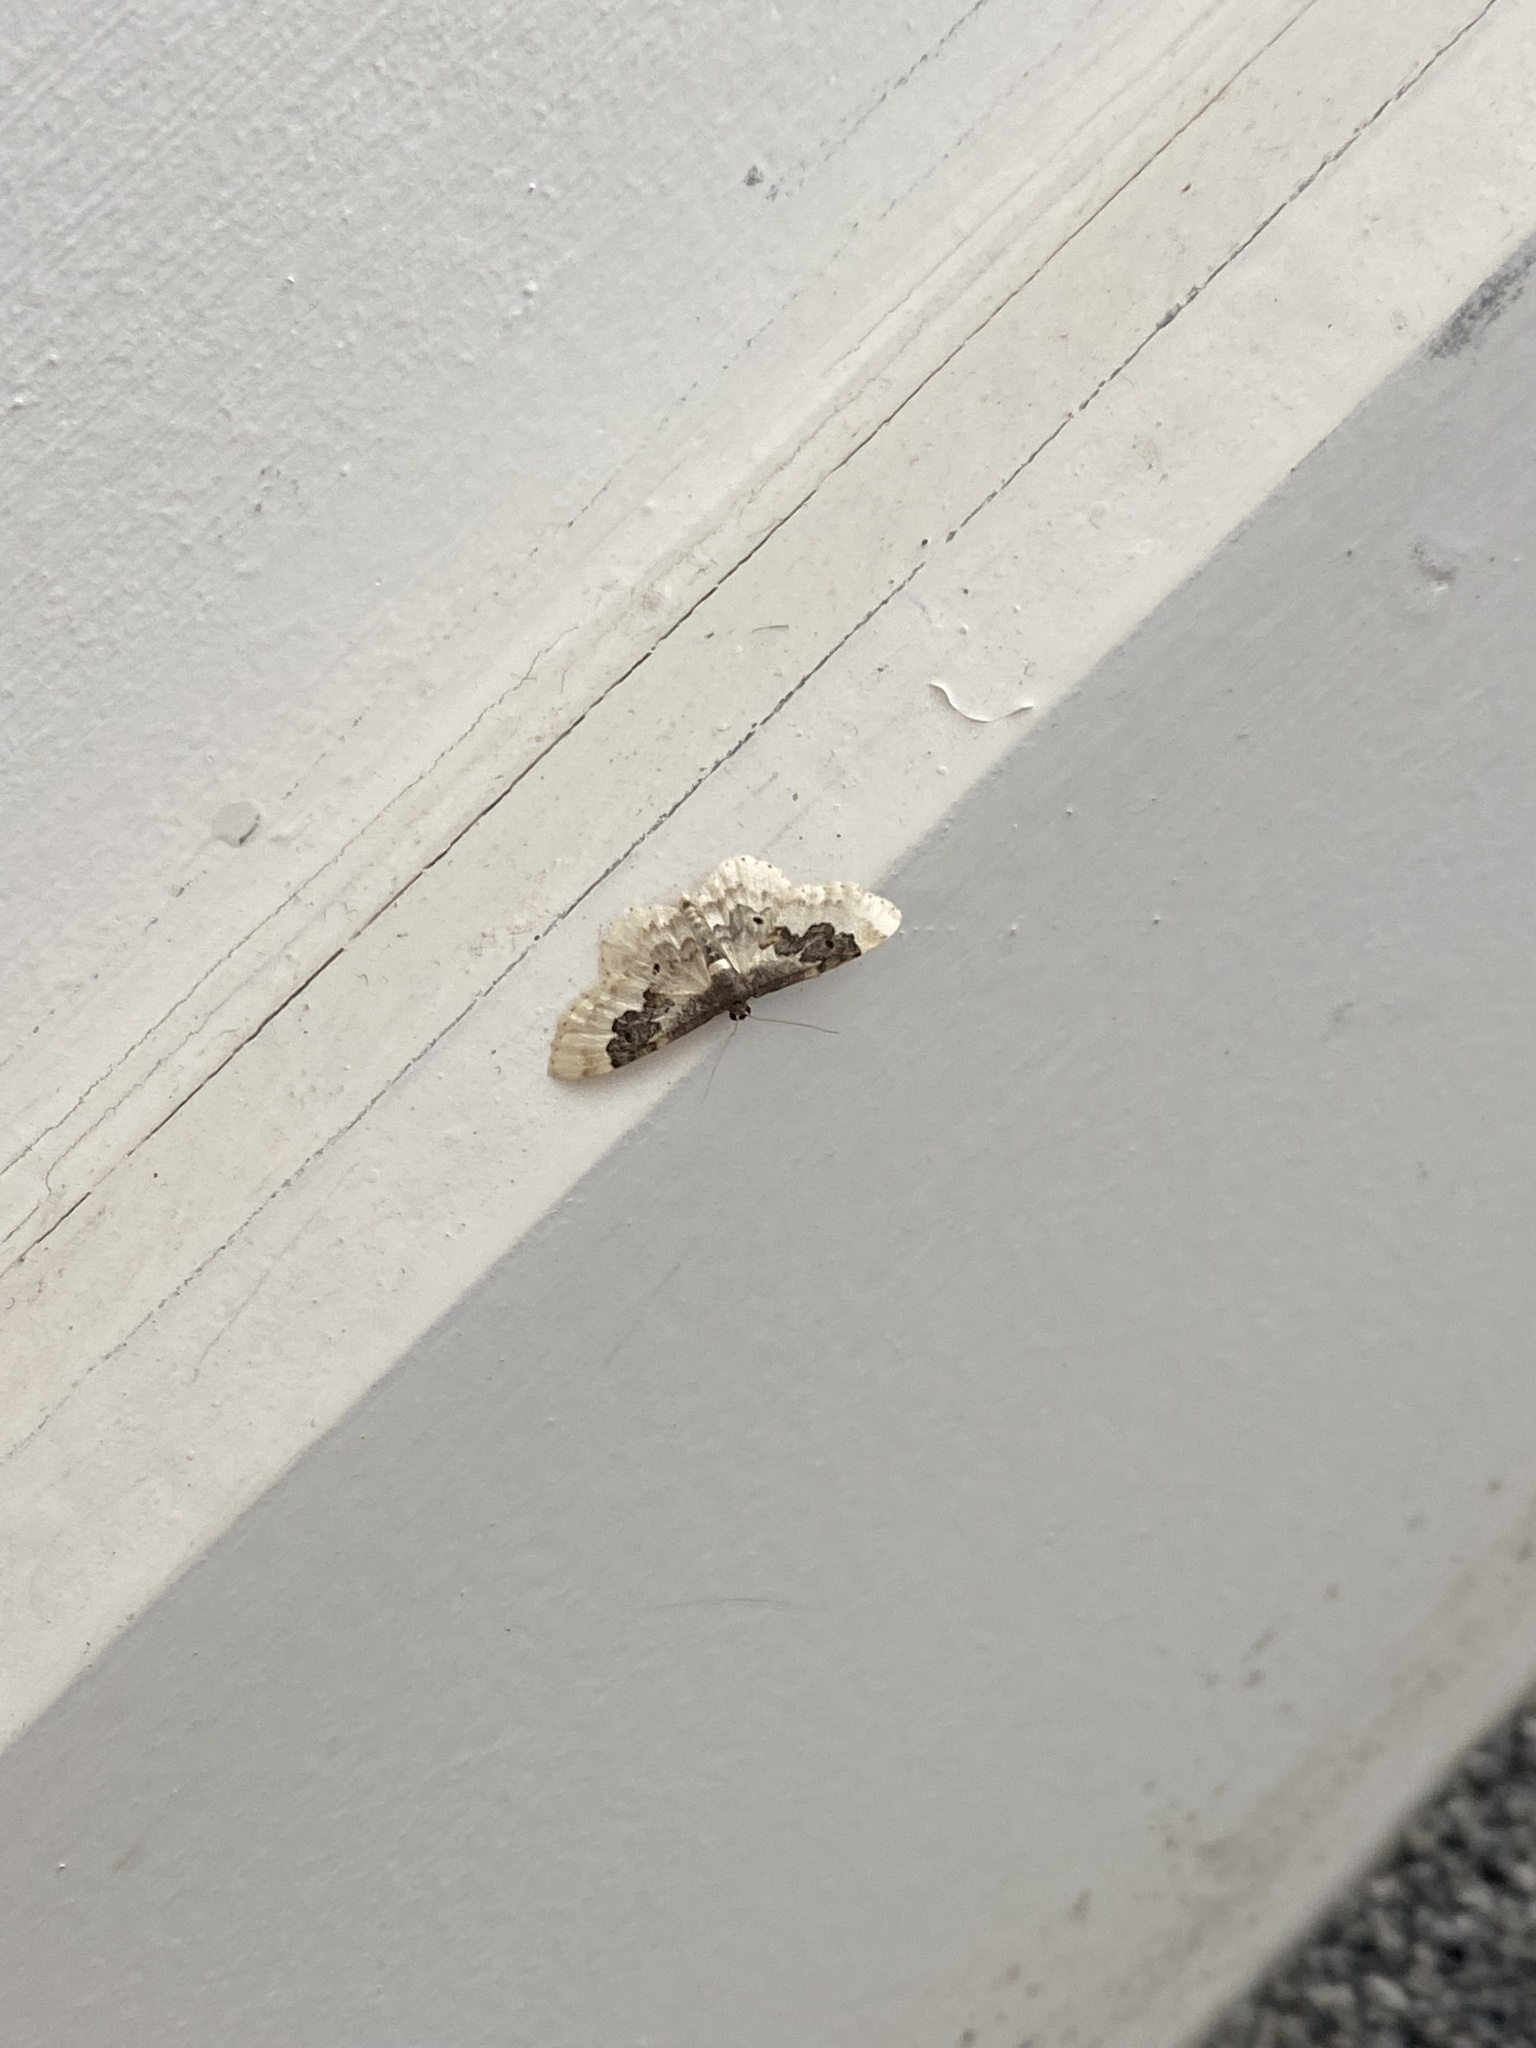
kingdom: Animalia
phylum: Arthropoda
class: Insecta
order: Lepidoptera
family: Geometridae
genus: Idaea
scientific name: Idaea rusticata
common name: Least carpet
